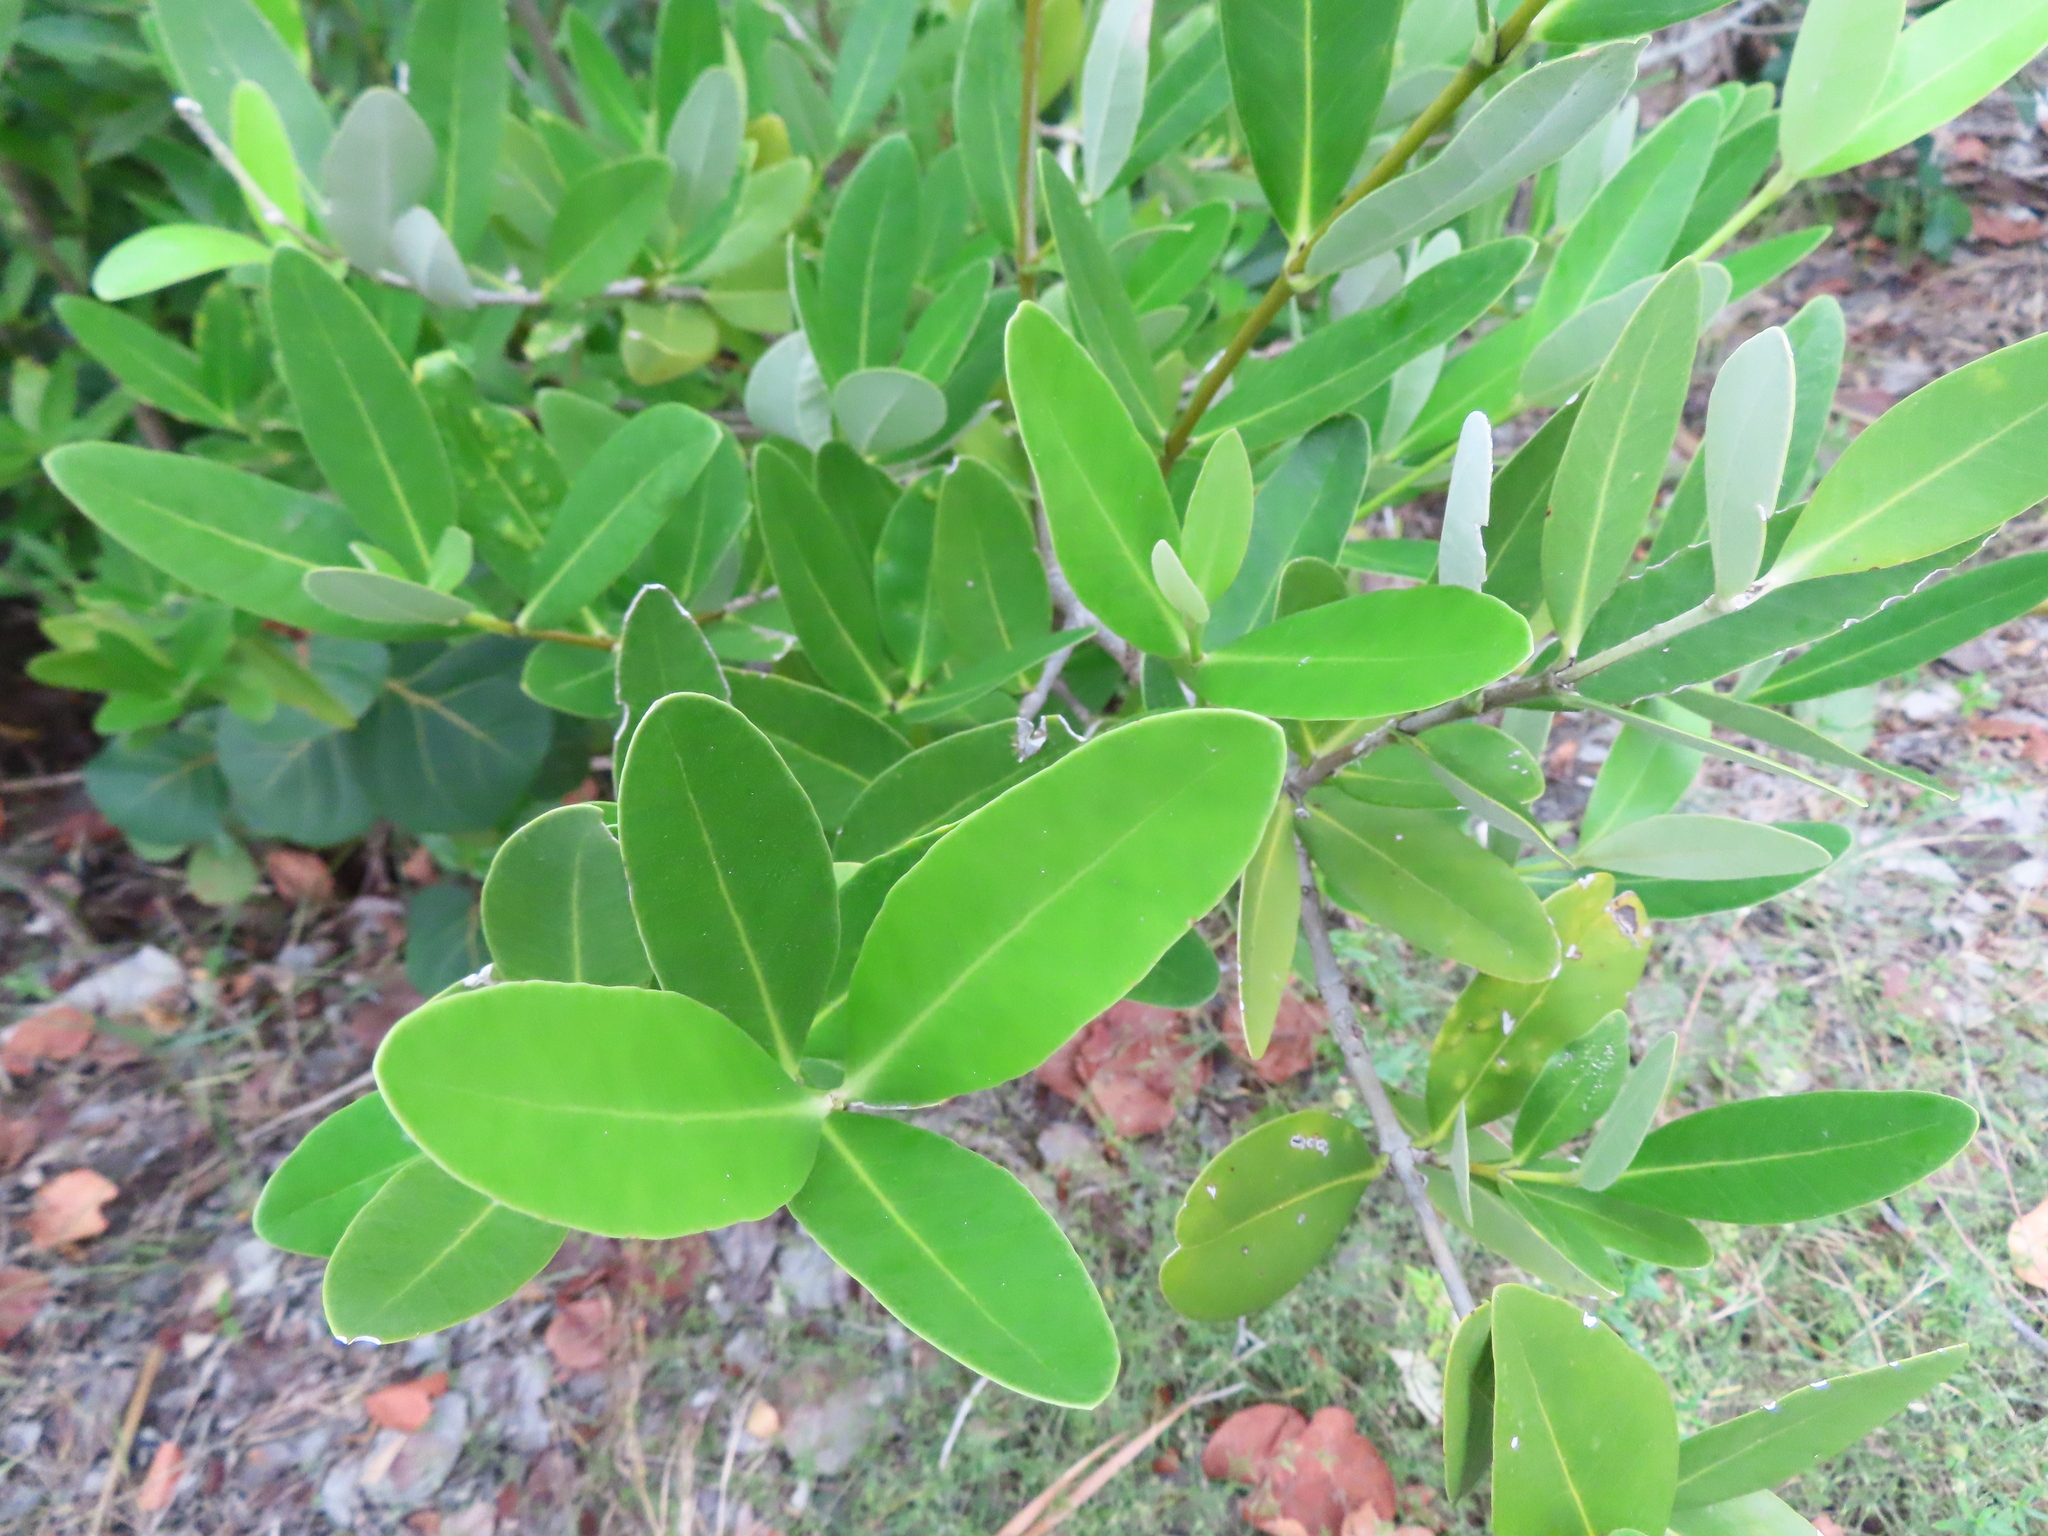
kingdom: Plantae
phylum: Tracheophyta
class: Magnoliopsida
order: Lamiales
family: Acanthaceae
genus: Avicennia
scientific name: Avicennia germinans
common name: Black mangrove
